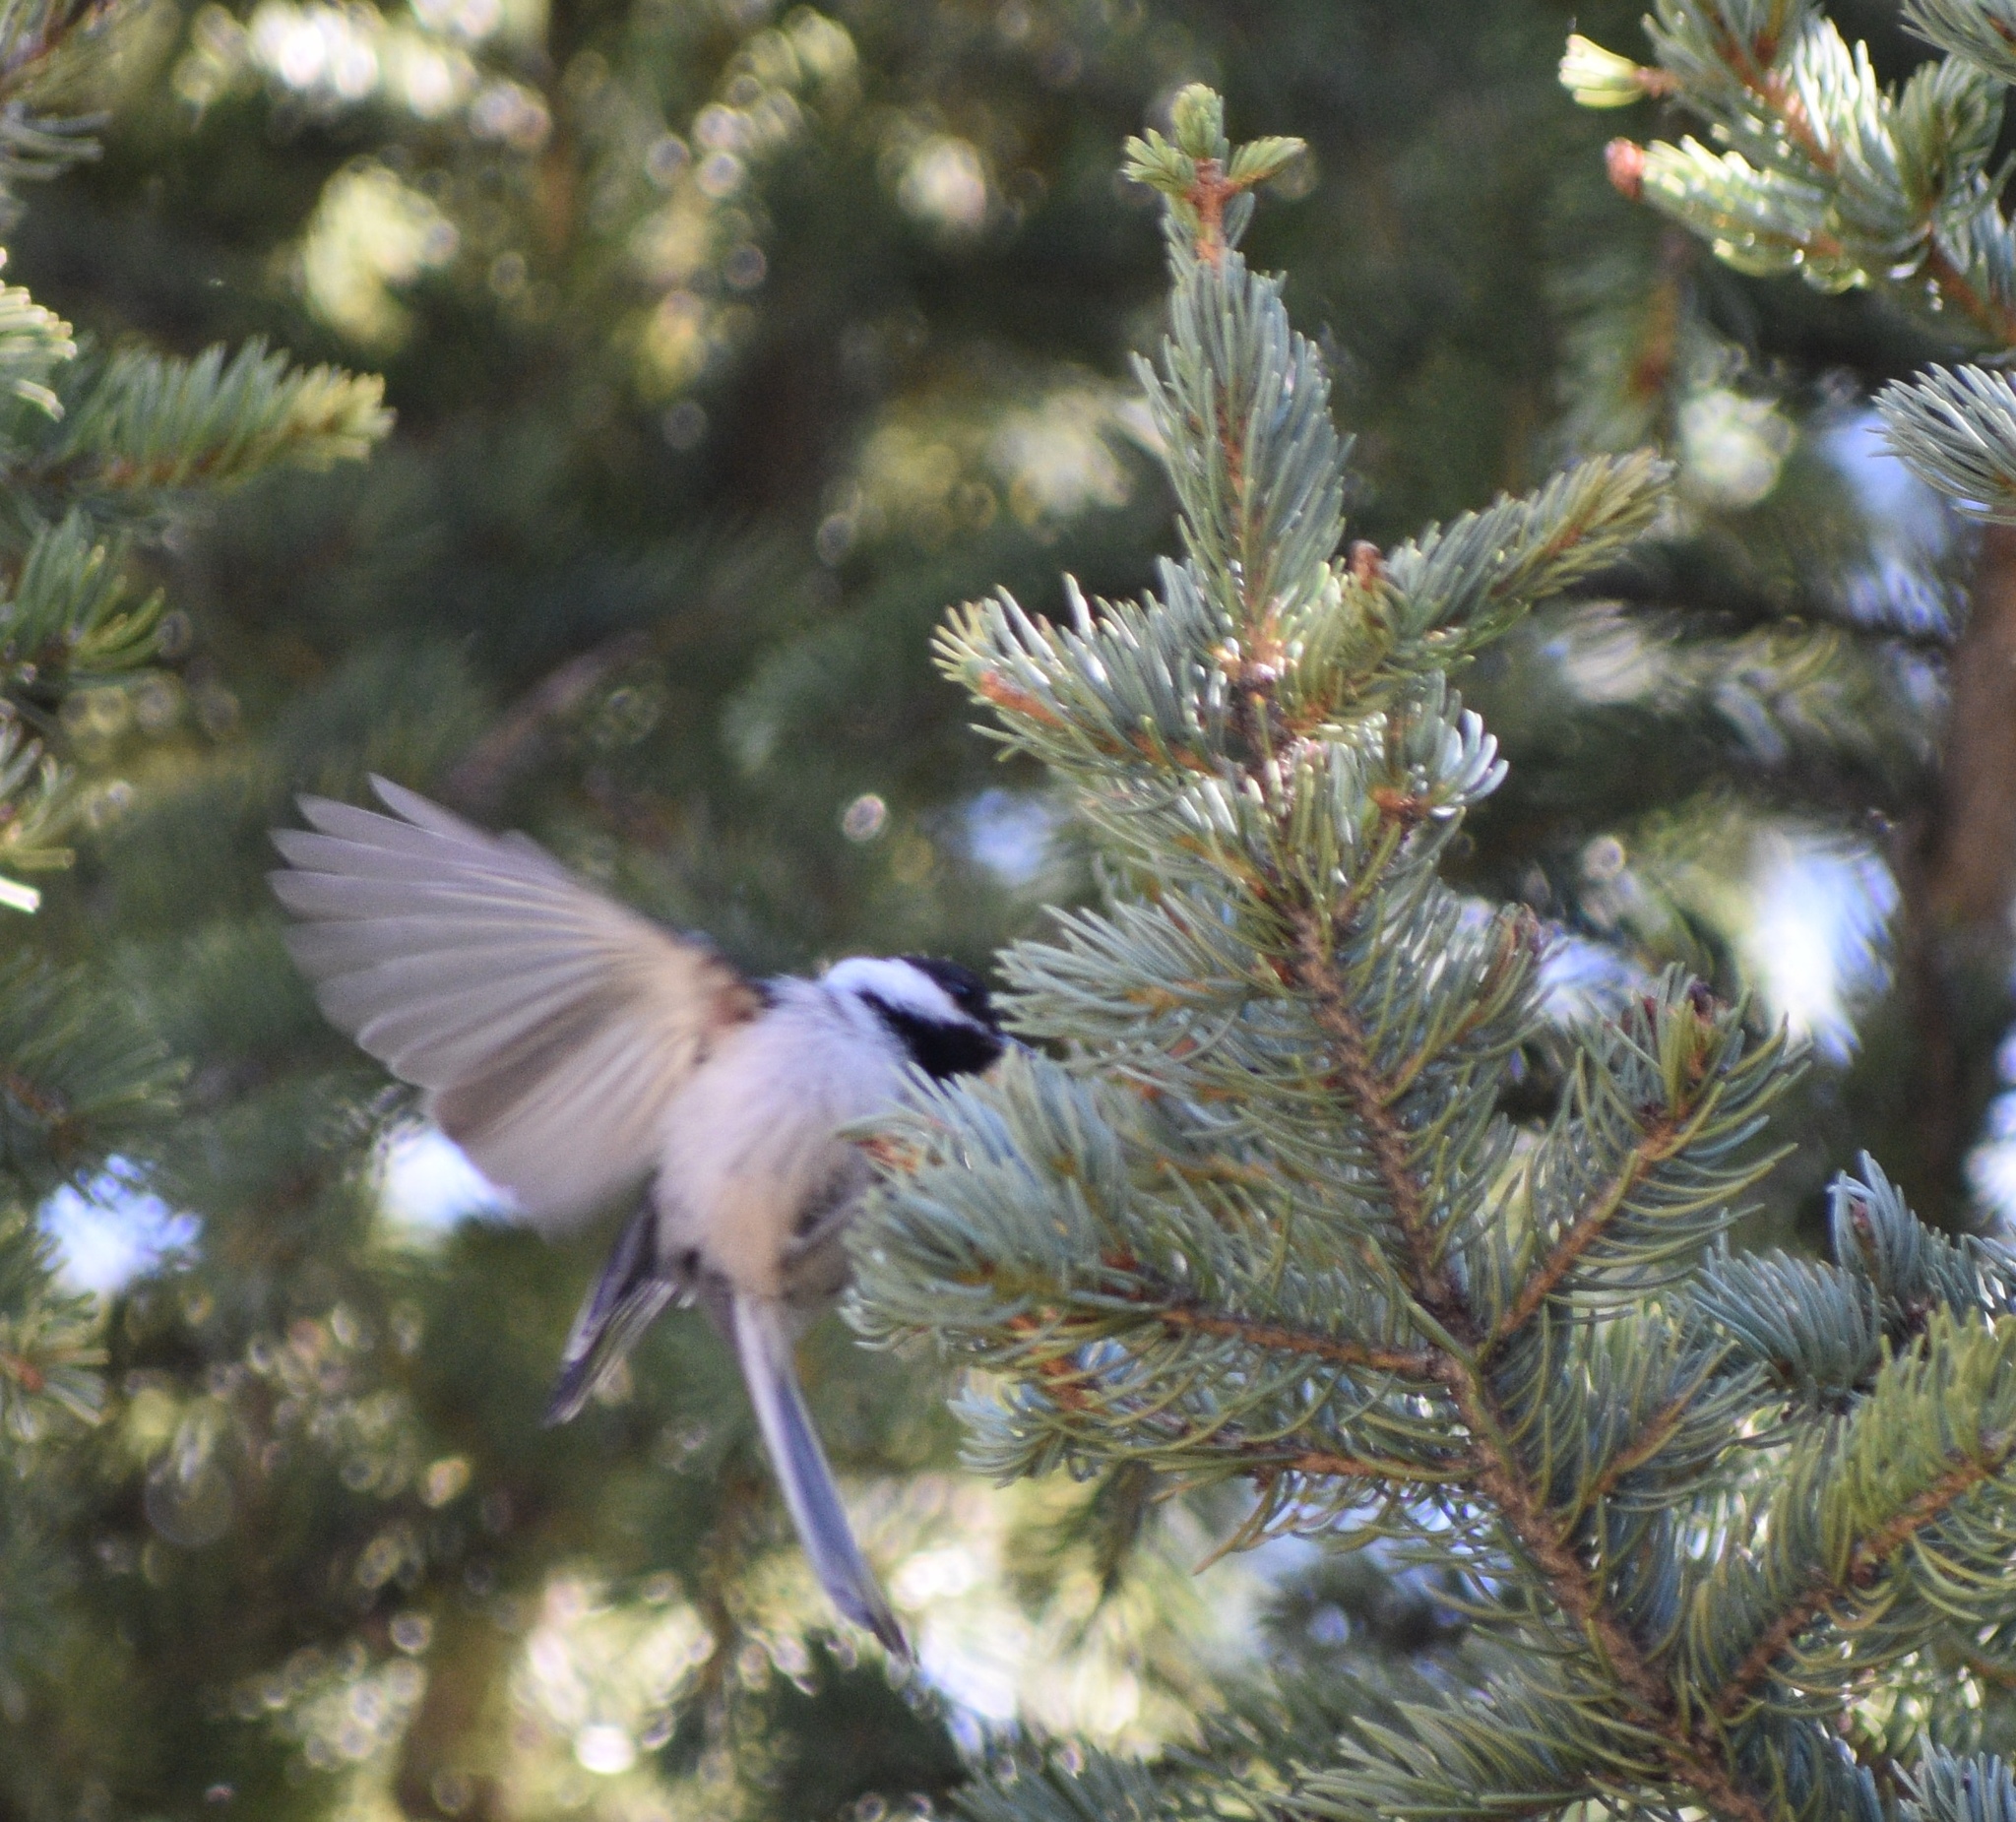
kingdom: Animalia
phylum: Chordata
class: Aves
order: Passeriformes
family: Paridae
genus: Poecile
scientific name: Poecile atricapillus
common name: Black-capped chickadee
